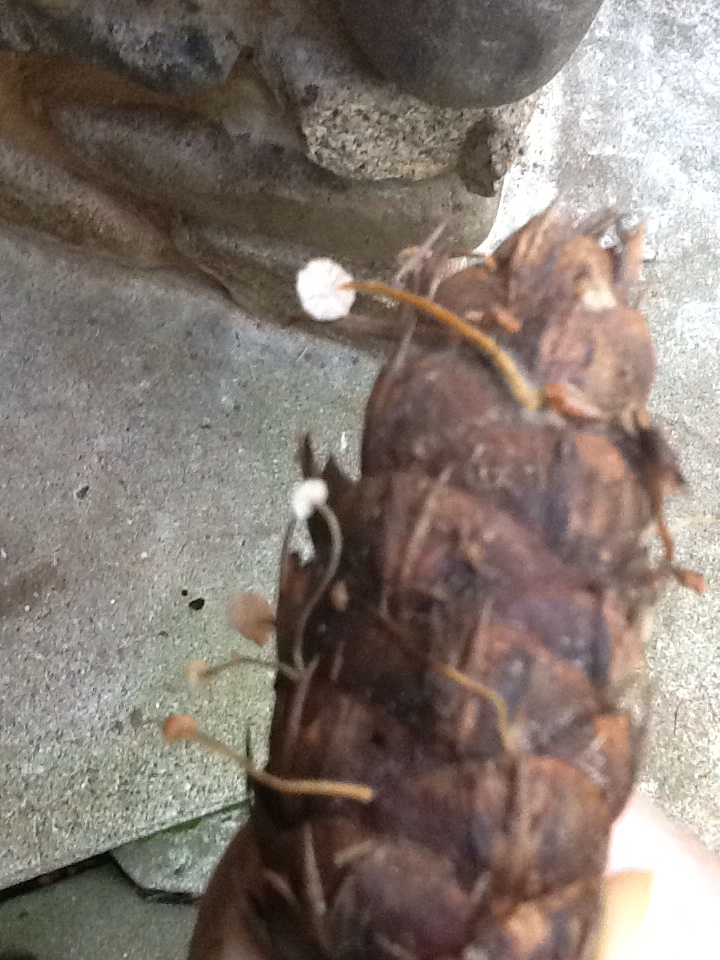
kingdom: Fungi
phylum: Basidiomycota
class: Agaricomycetes
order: Agaricales
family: Physalacriaceae
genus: Strobilurus
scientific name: Strobilurus trullisatus
